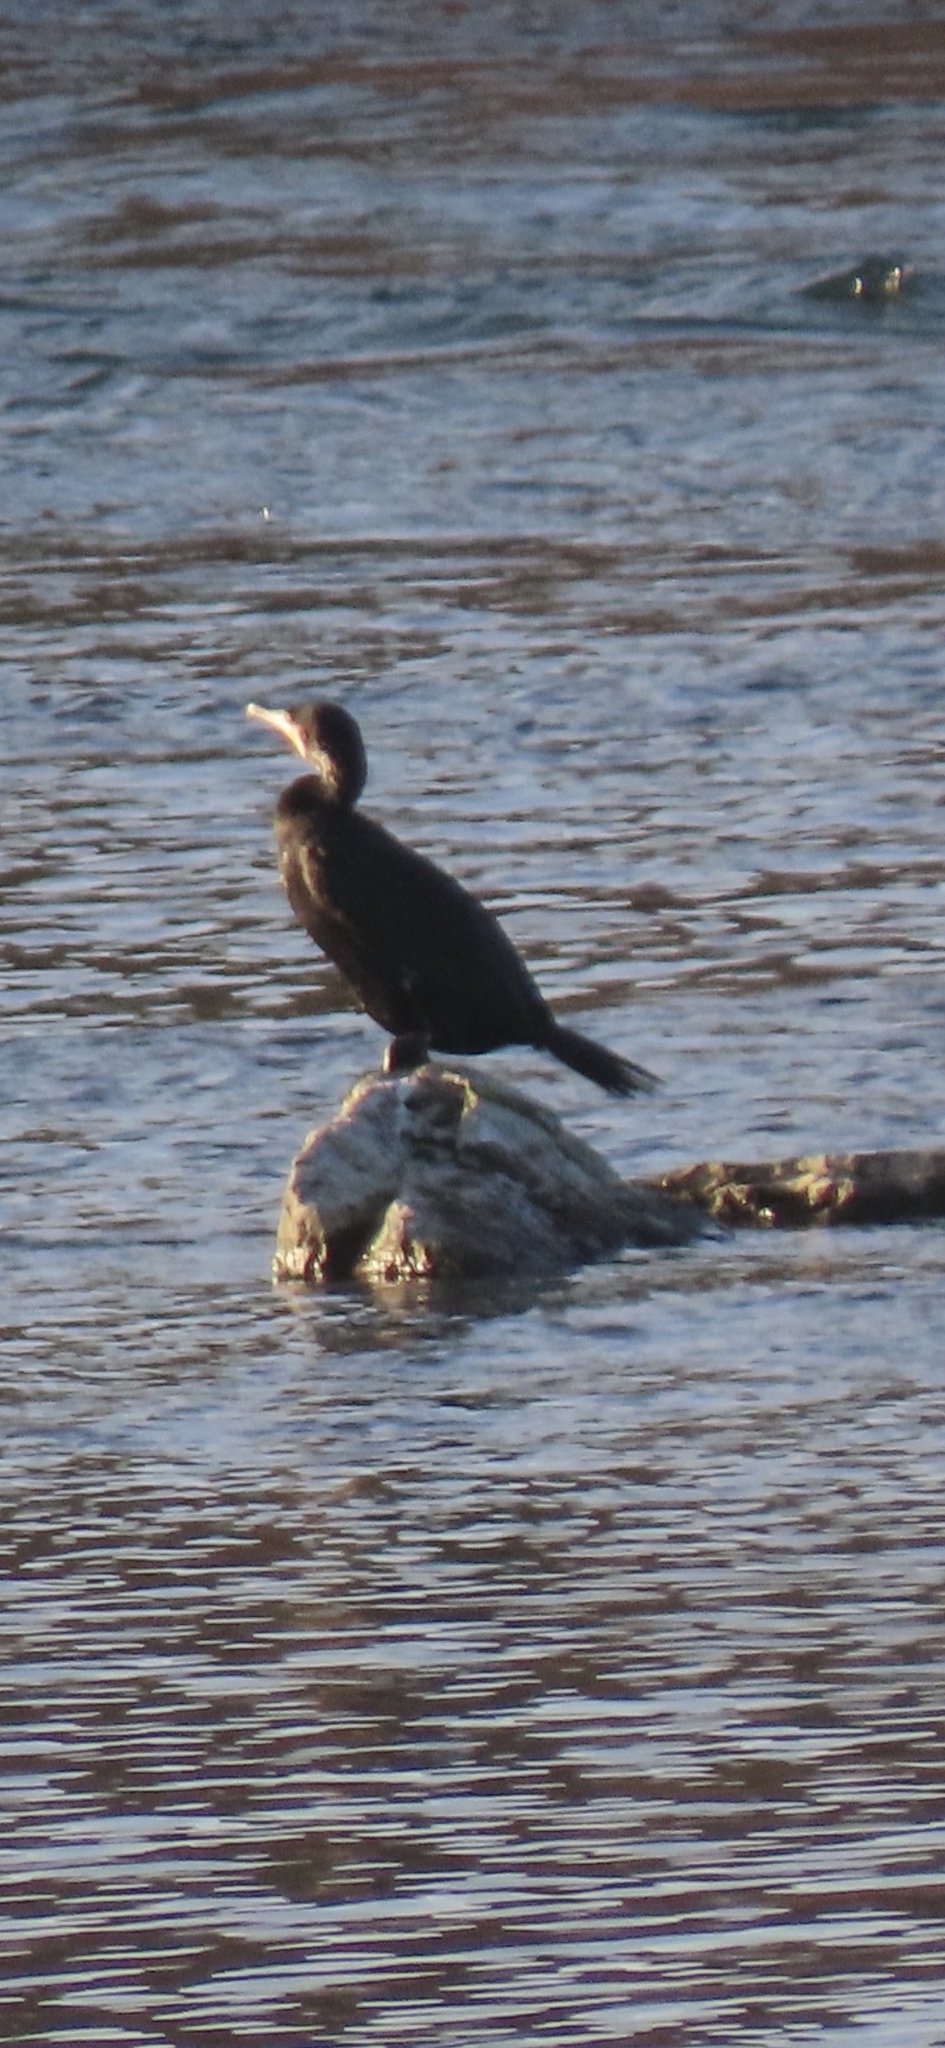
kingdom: Animalia
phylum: Chordata
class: Aves
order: Suliformes
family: Phalacrocoracidae
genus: Phalacrocorax
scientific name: Phalacrocorax carbo
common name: Great cormorant
